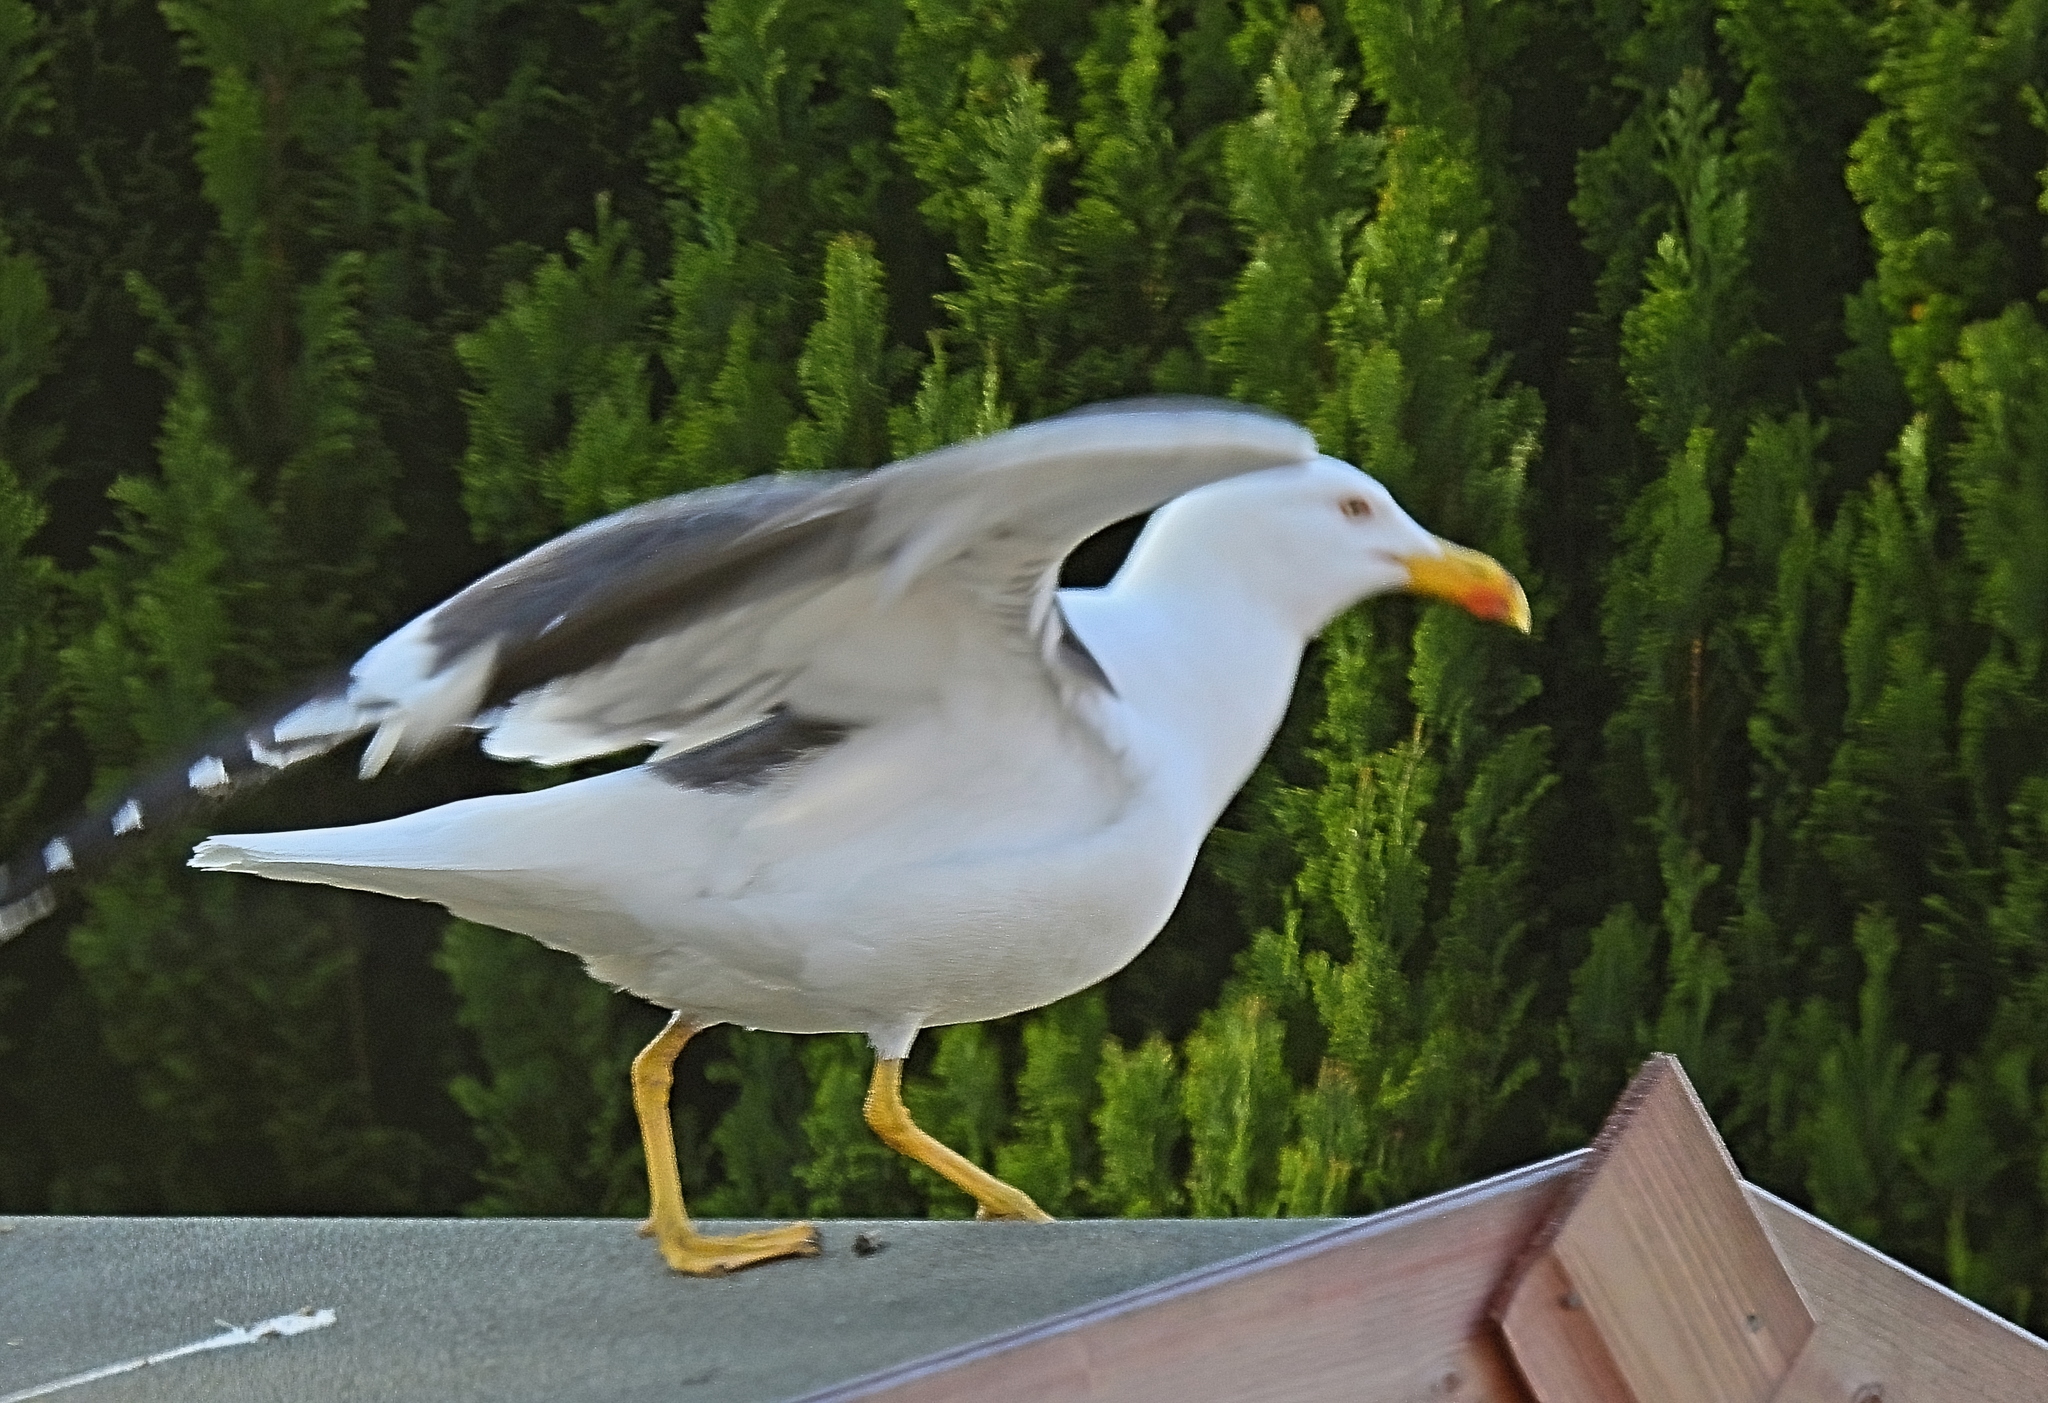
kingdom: Animalia
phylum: Chordata
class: Aves
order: Charadriiformes
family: Laridae
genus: Larus
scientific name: Larus fuscus
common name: Lesser black-backed gull
